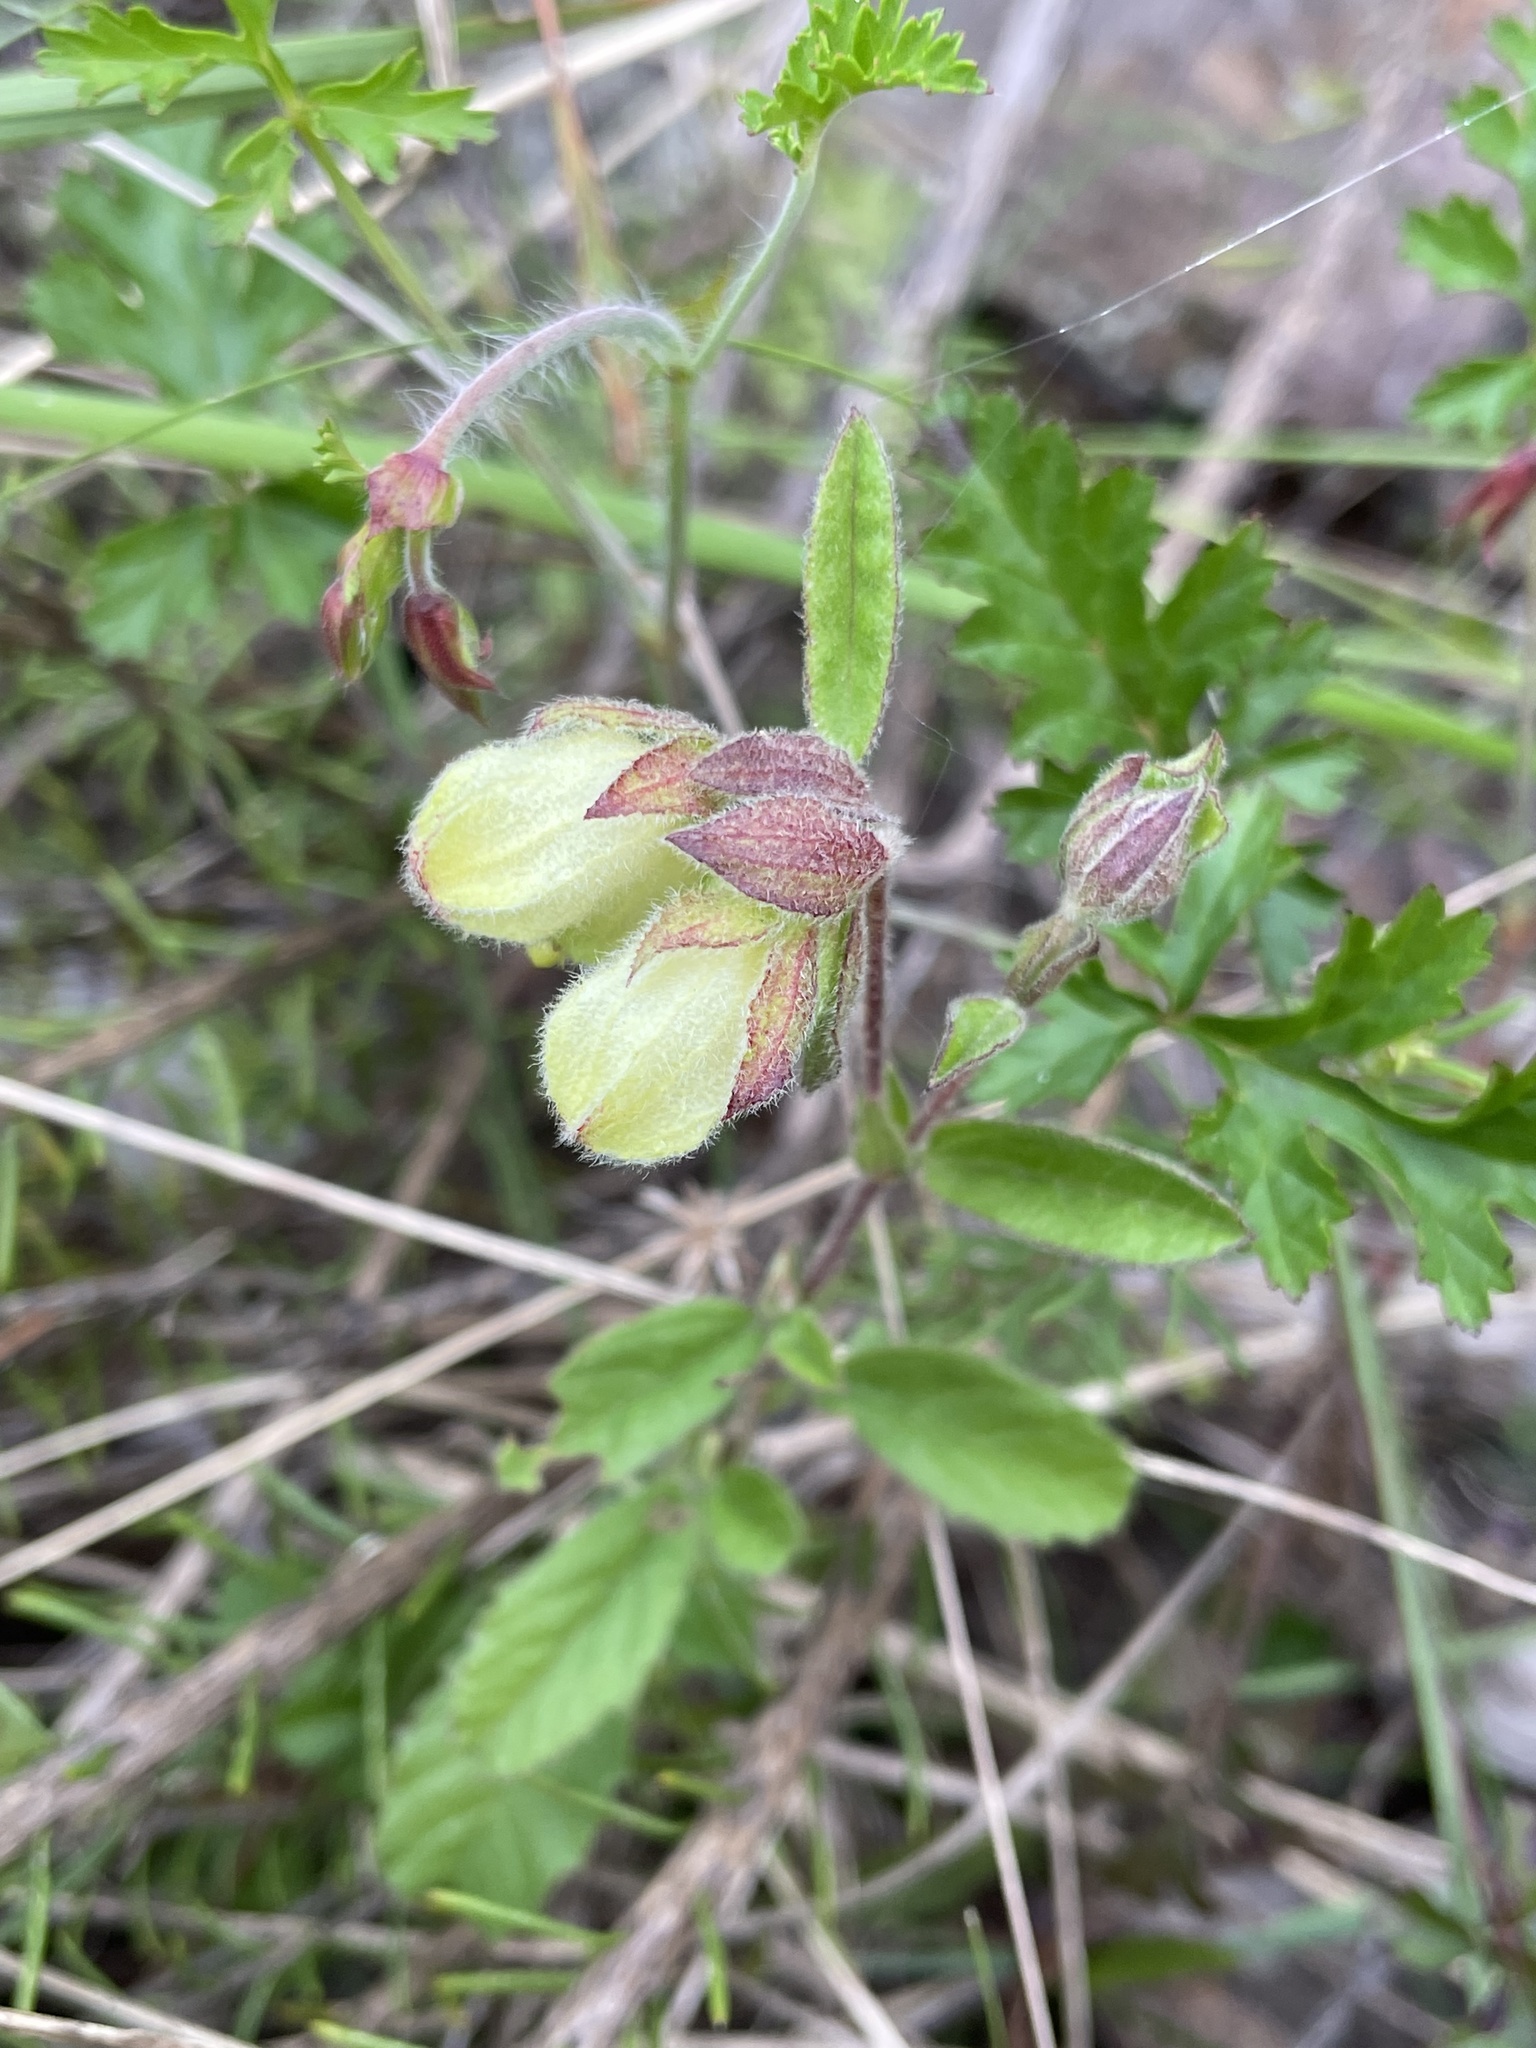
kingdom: Plantae
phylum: Tracheophyta
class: Magnoliopsida
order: Malvales
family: Malvaceae
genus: Hermannia
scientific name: Hermannia hyssopifolia
